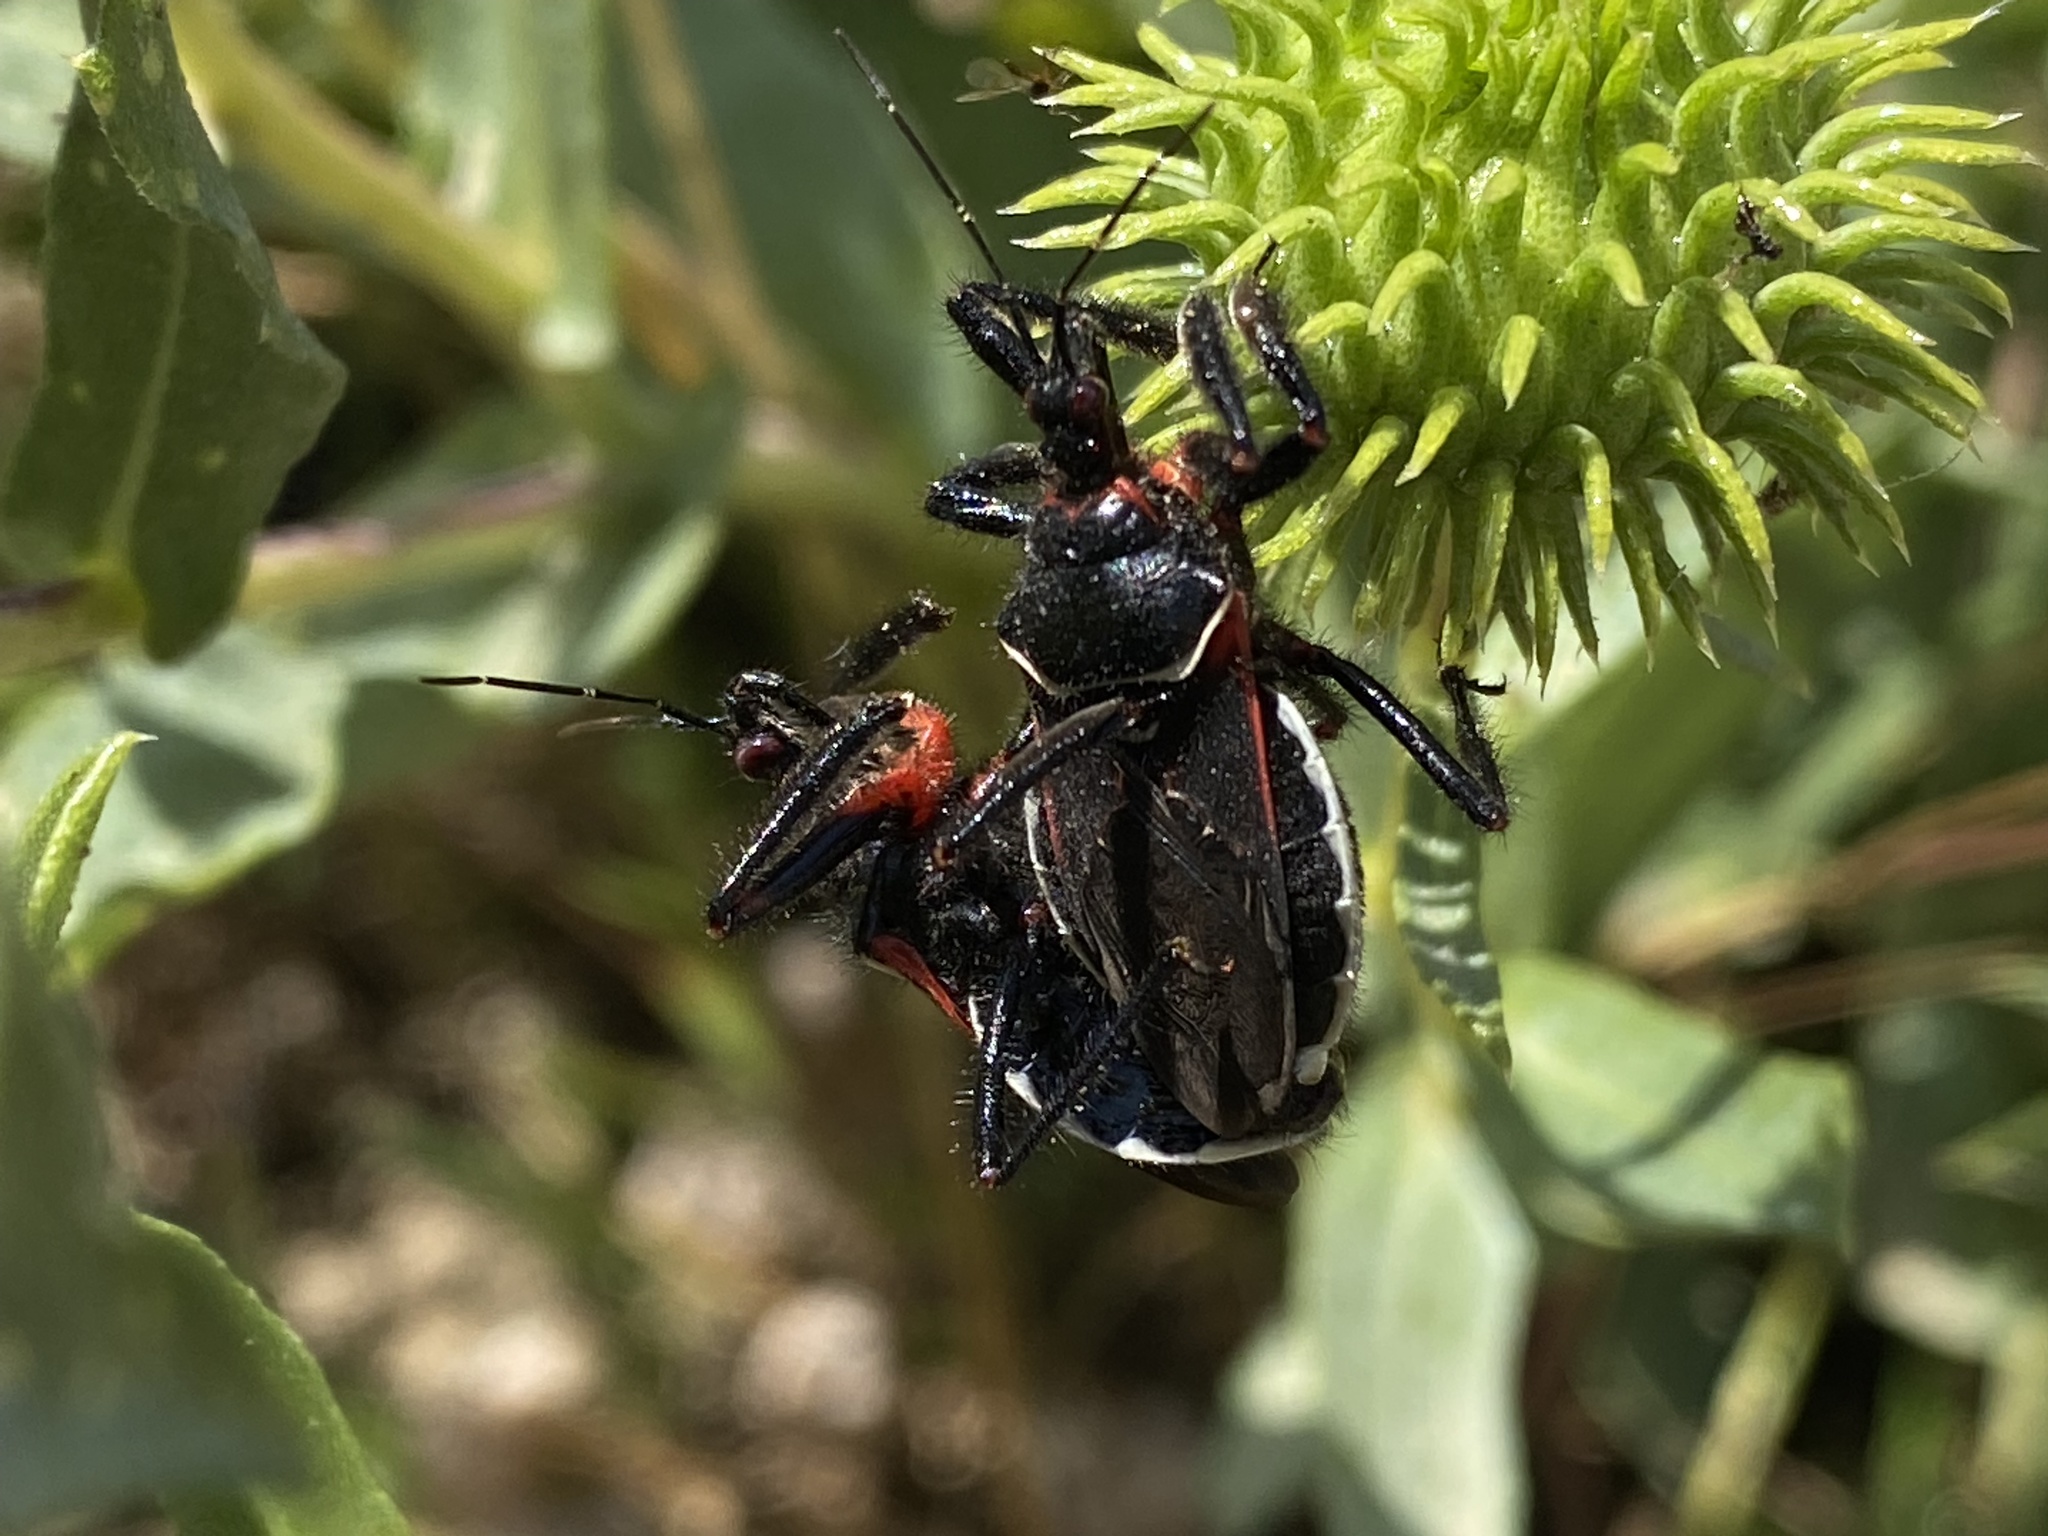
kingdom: Animalia
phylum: Arthropoda
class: Insecta
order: Hemiptera
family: Reduviidae
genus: Apiomerus
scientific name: Apiomerus californicus
